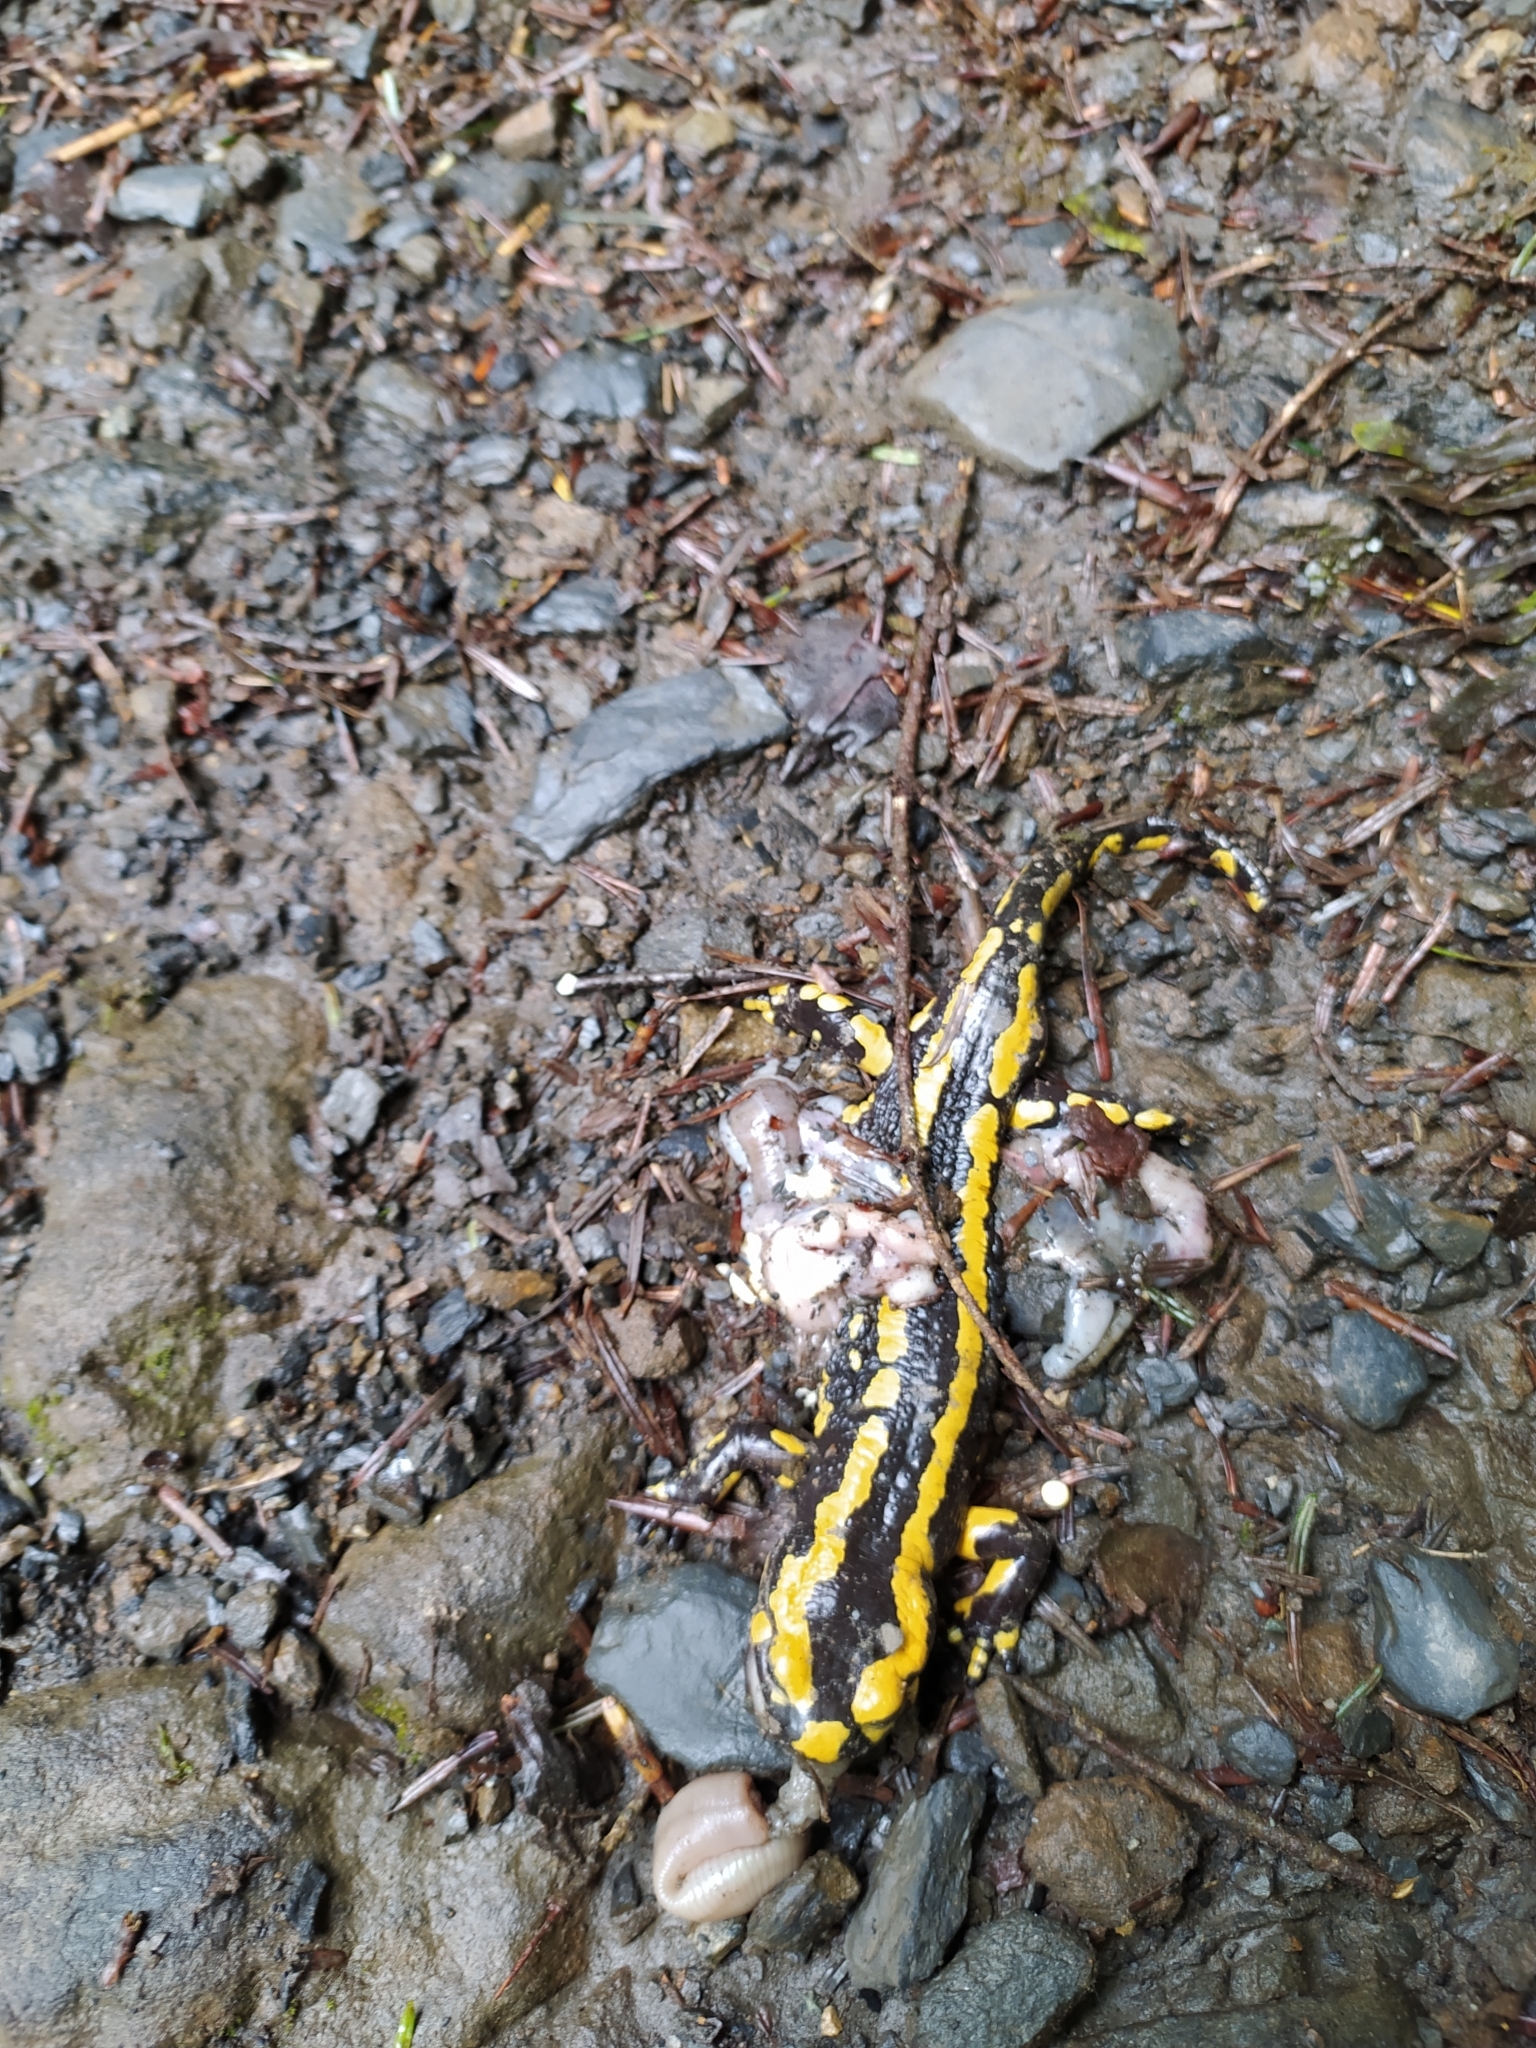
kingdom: Animalia
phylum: Chordata
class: Amphibia
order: Caudata
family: Salamandridae
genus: Salamandra
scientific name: Salamandra salamandra
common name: Fire salamander
